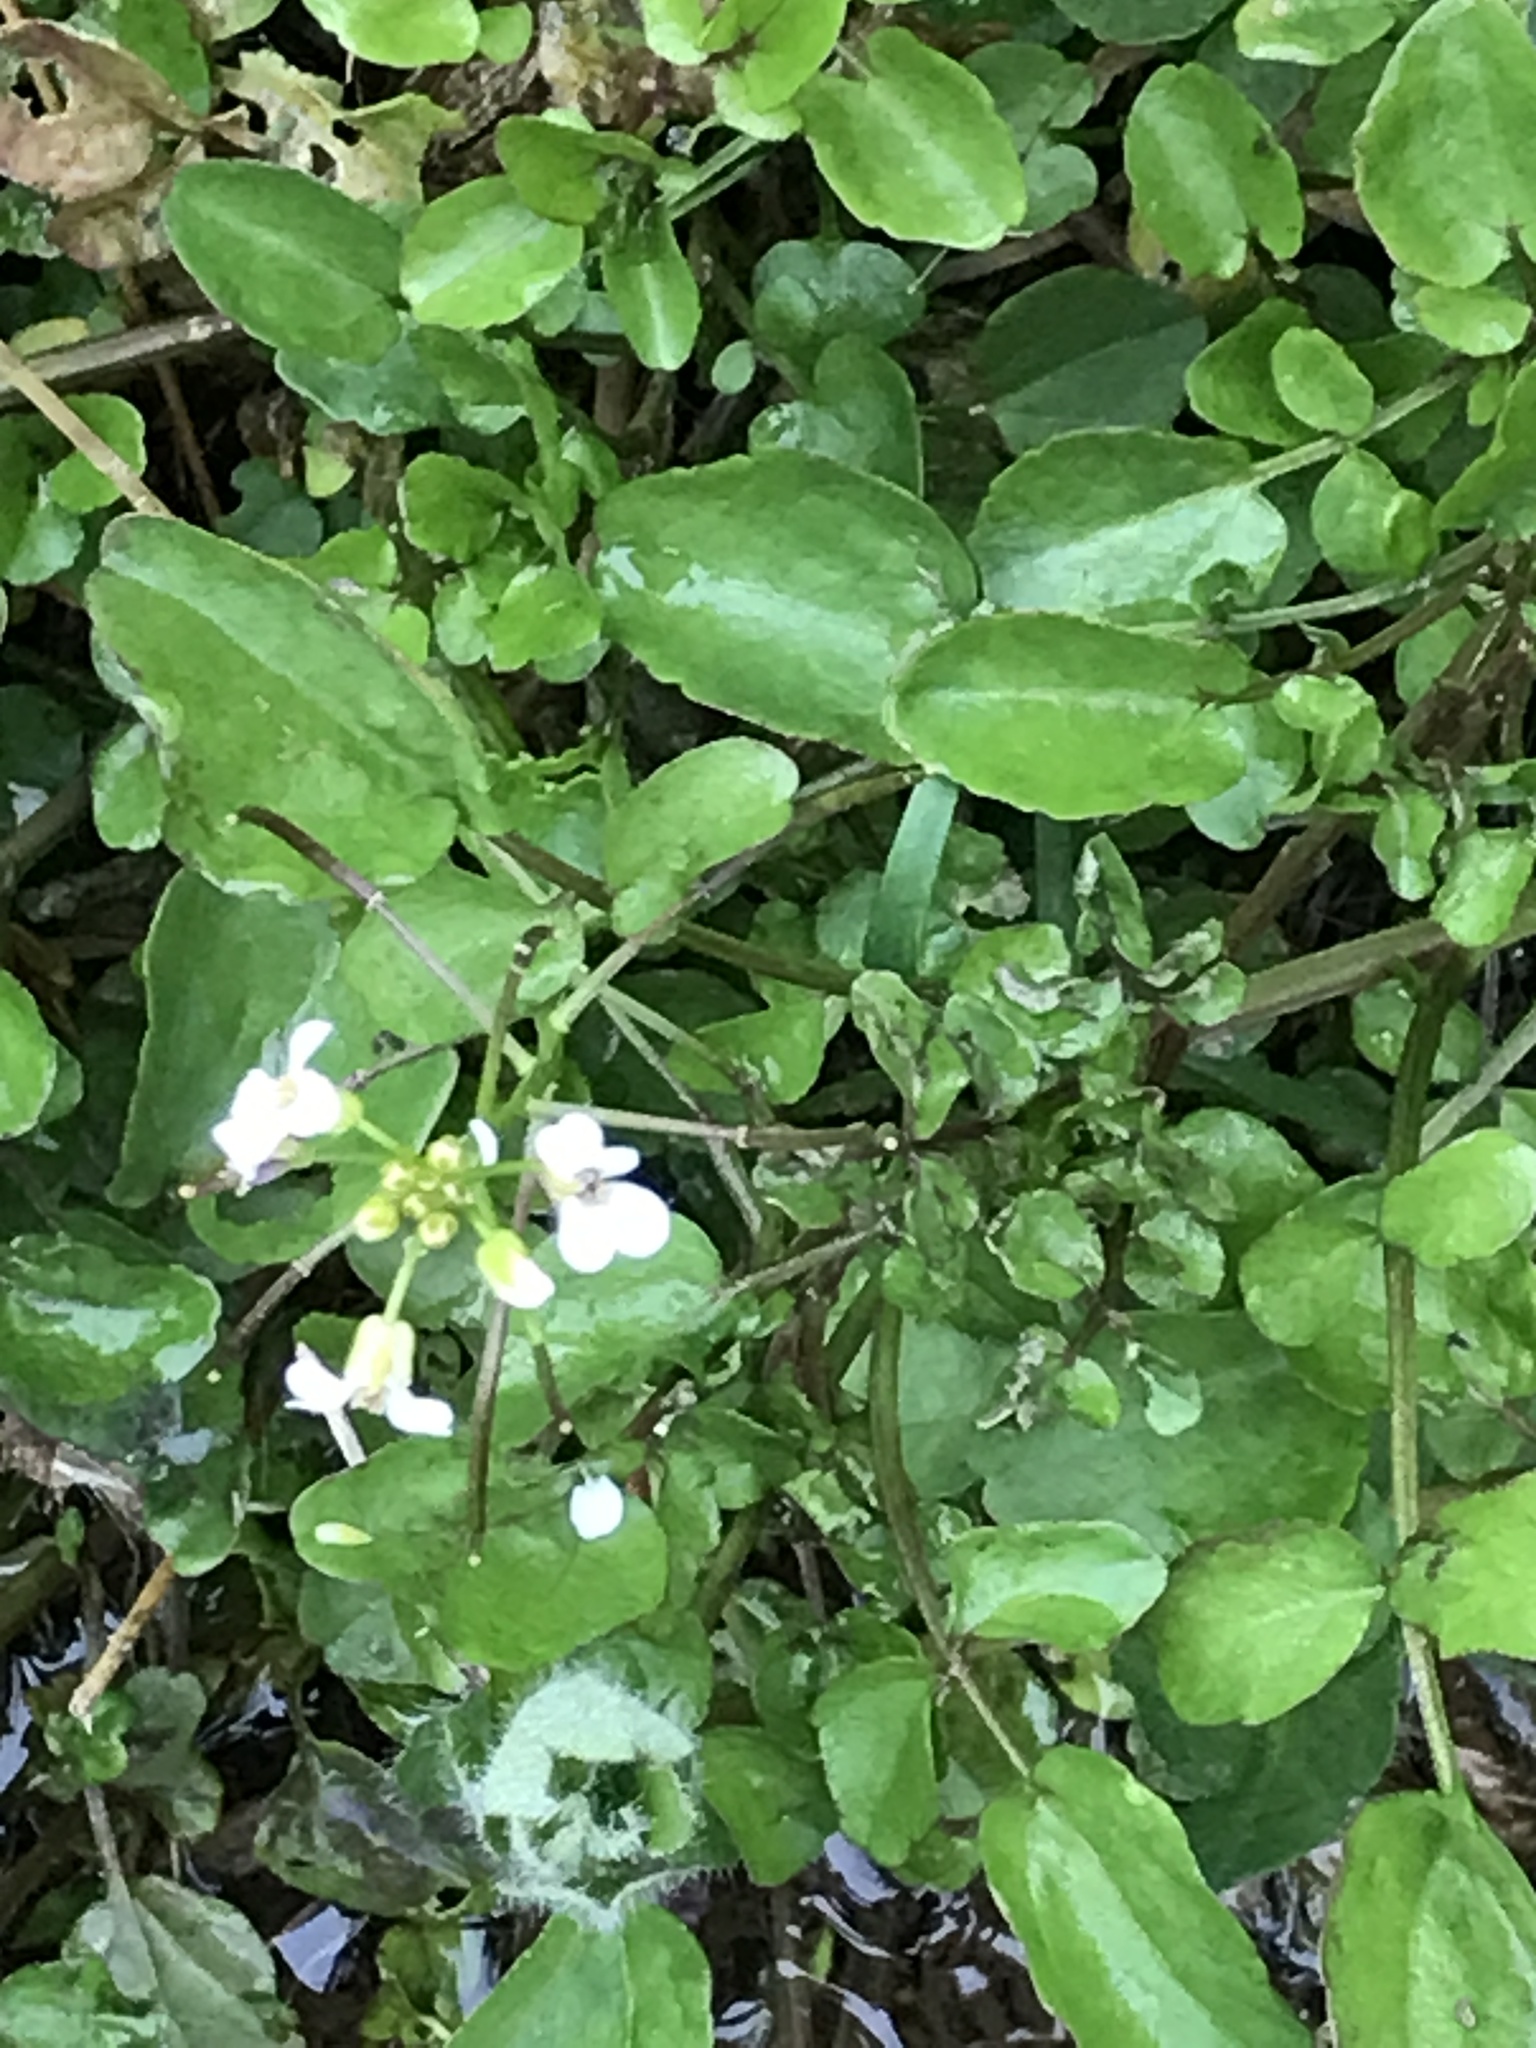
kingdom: Plantae
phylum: Tracheophyta
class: Magnoliopsida
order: Brassicales
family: Brassicaceae
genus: Nasturtium
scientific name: Nasturtium officinale
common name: Watercress
